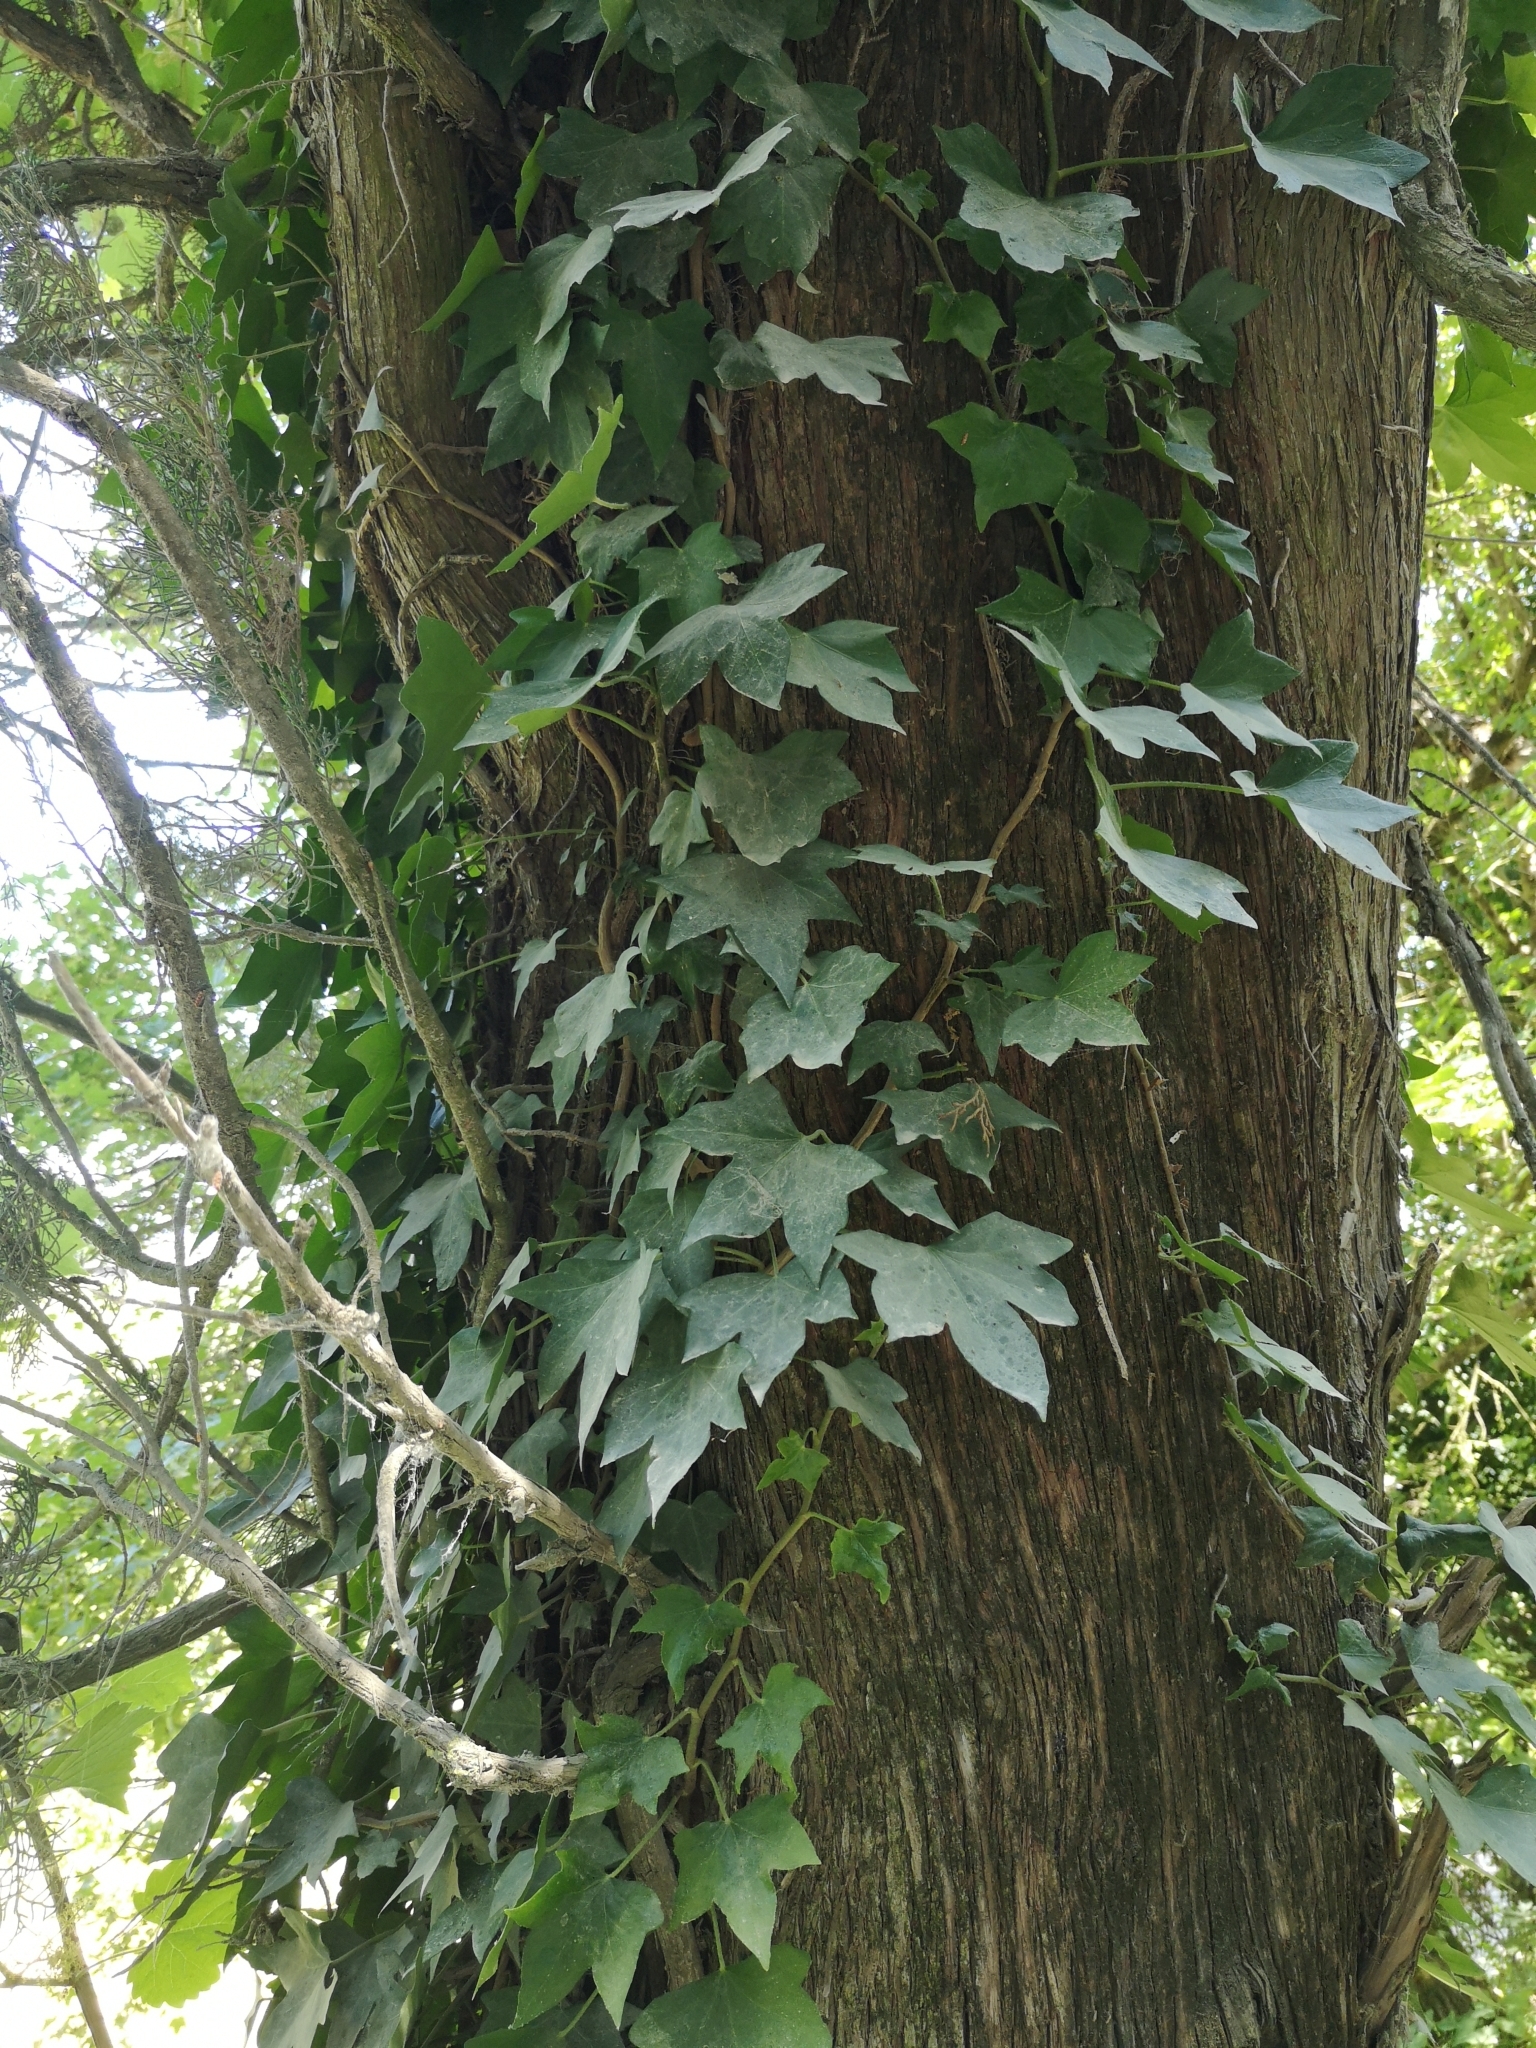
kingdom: Plantae
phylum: Tracheophyta
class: Magnoliopsida
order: Apiales
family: Araliaceae
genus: Hedera
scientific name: Hedera helix
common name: Ivy
